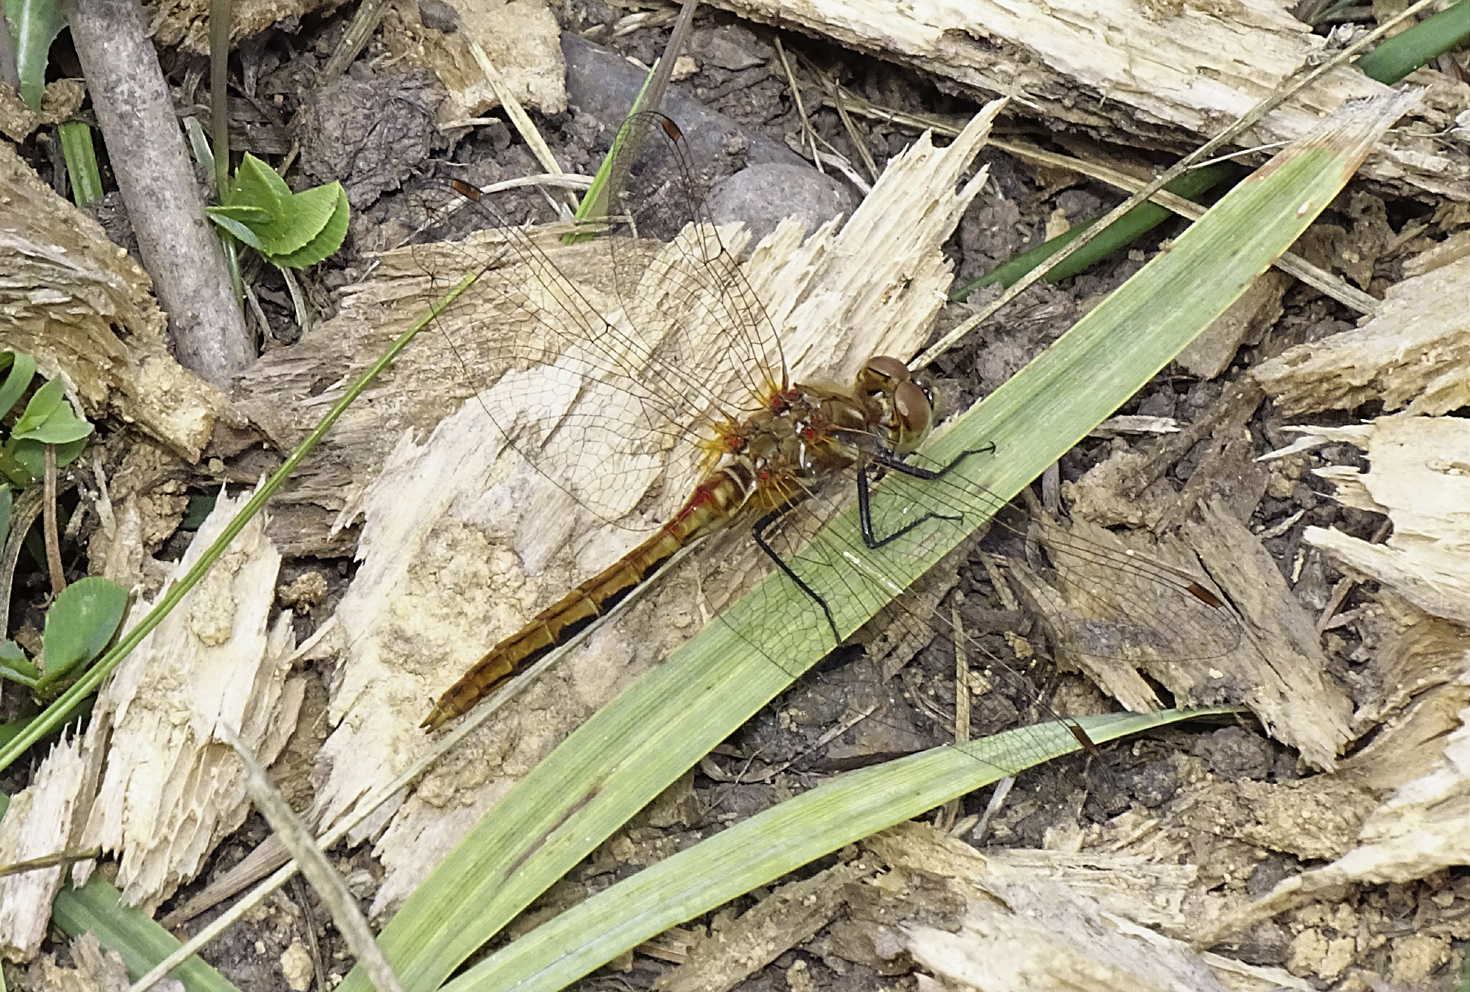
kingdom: Animalia
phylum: Arthropoda
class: Insecta
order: Odonata
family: Libellulidae
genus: Sympetrum
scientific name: Sympetrum pallipes
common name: Striped meadowhawk
